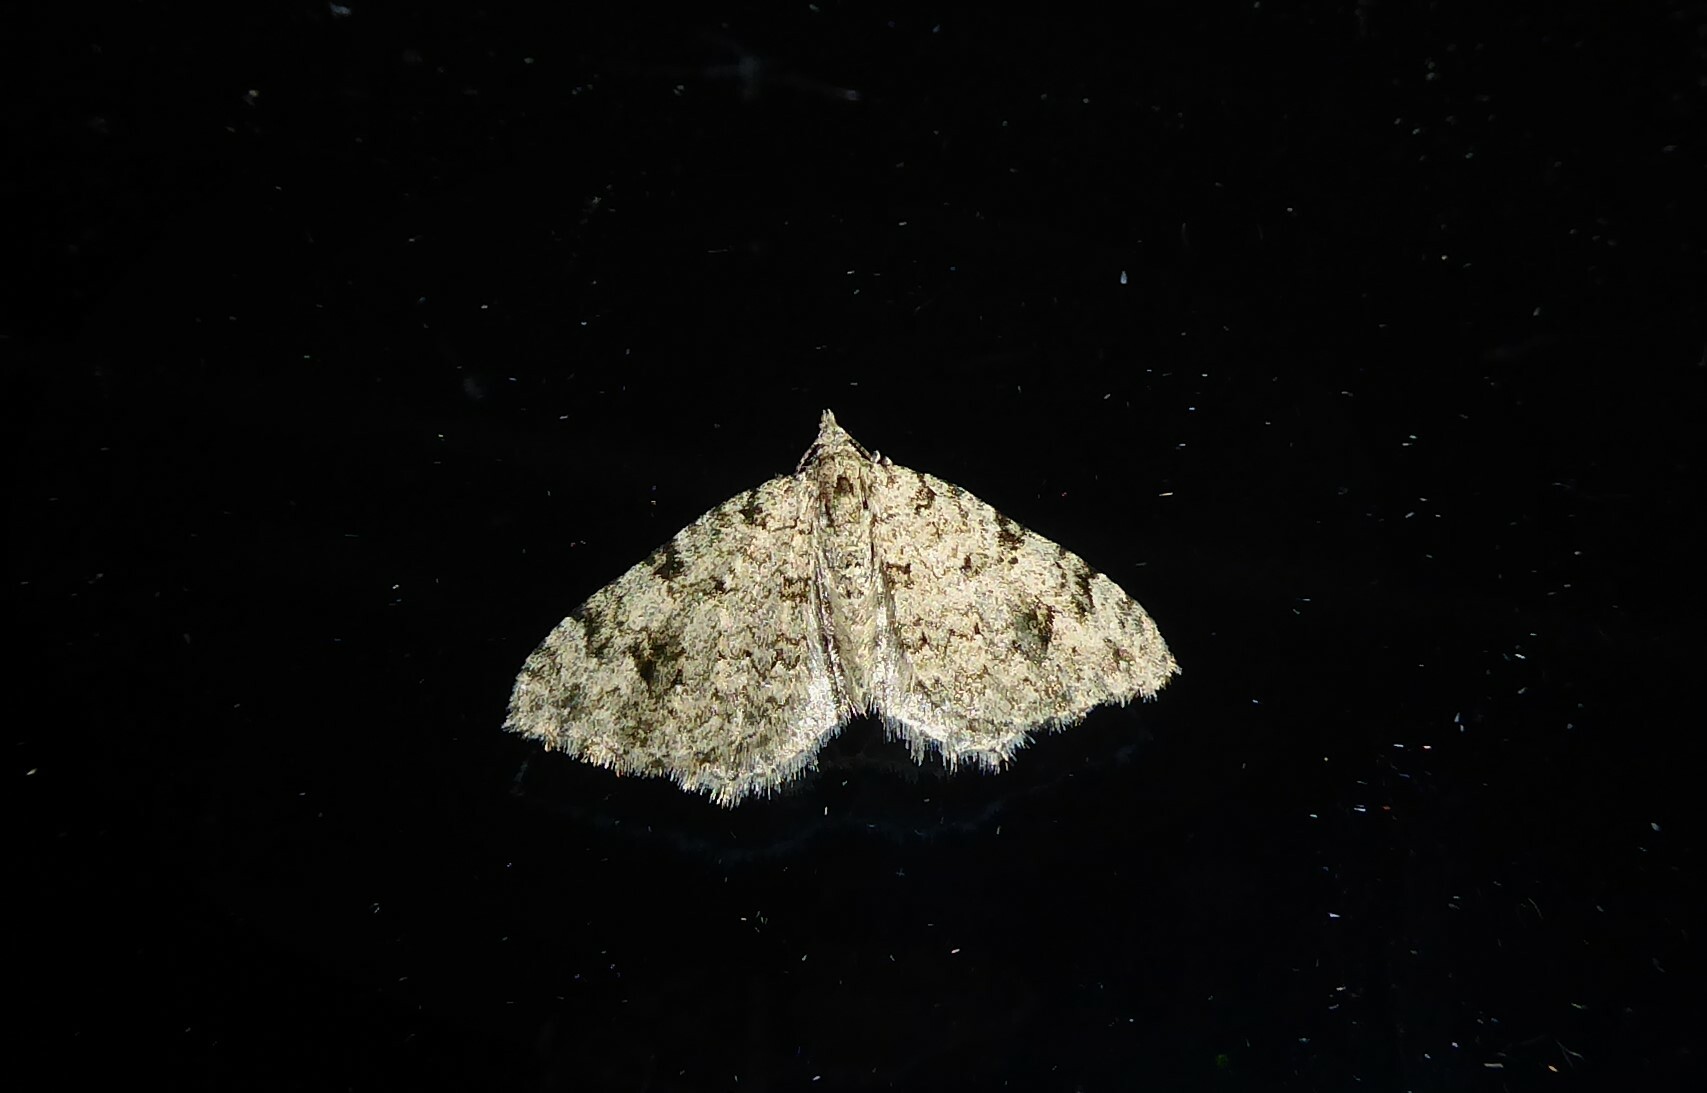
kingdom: Animalia
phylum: Arthropoda
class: Insecta
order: Lepidoptera
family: Geometridae
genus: Helastia
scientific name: Helastia cinerearia
